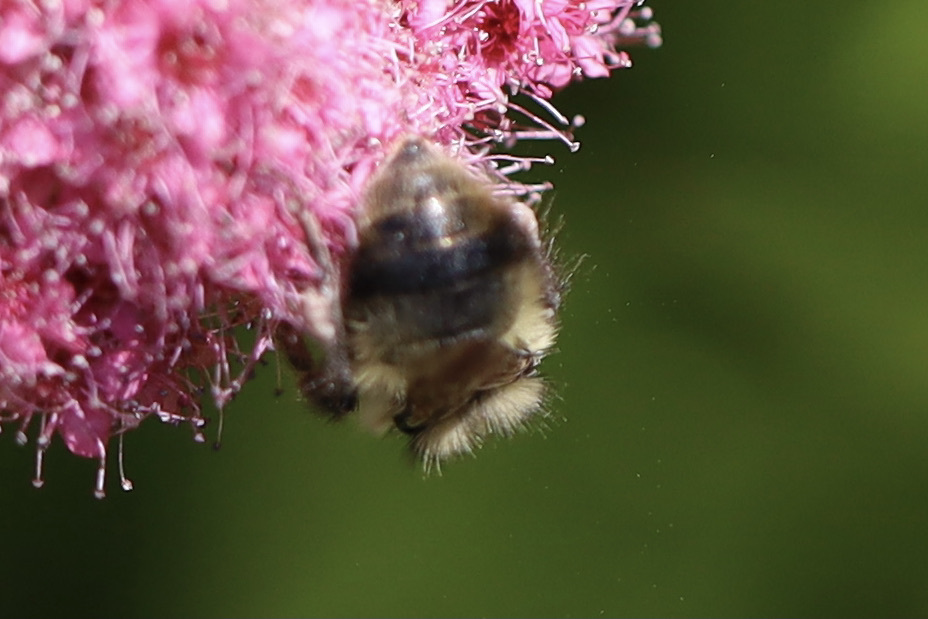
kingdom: Animalia
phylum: Arthropoda
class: Insecta
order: Hymenoptera
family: Apidae
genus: Bombus
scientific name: Bombus mixtus
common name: Fuzzy-horned bumble bee
